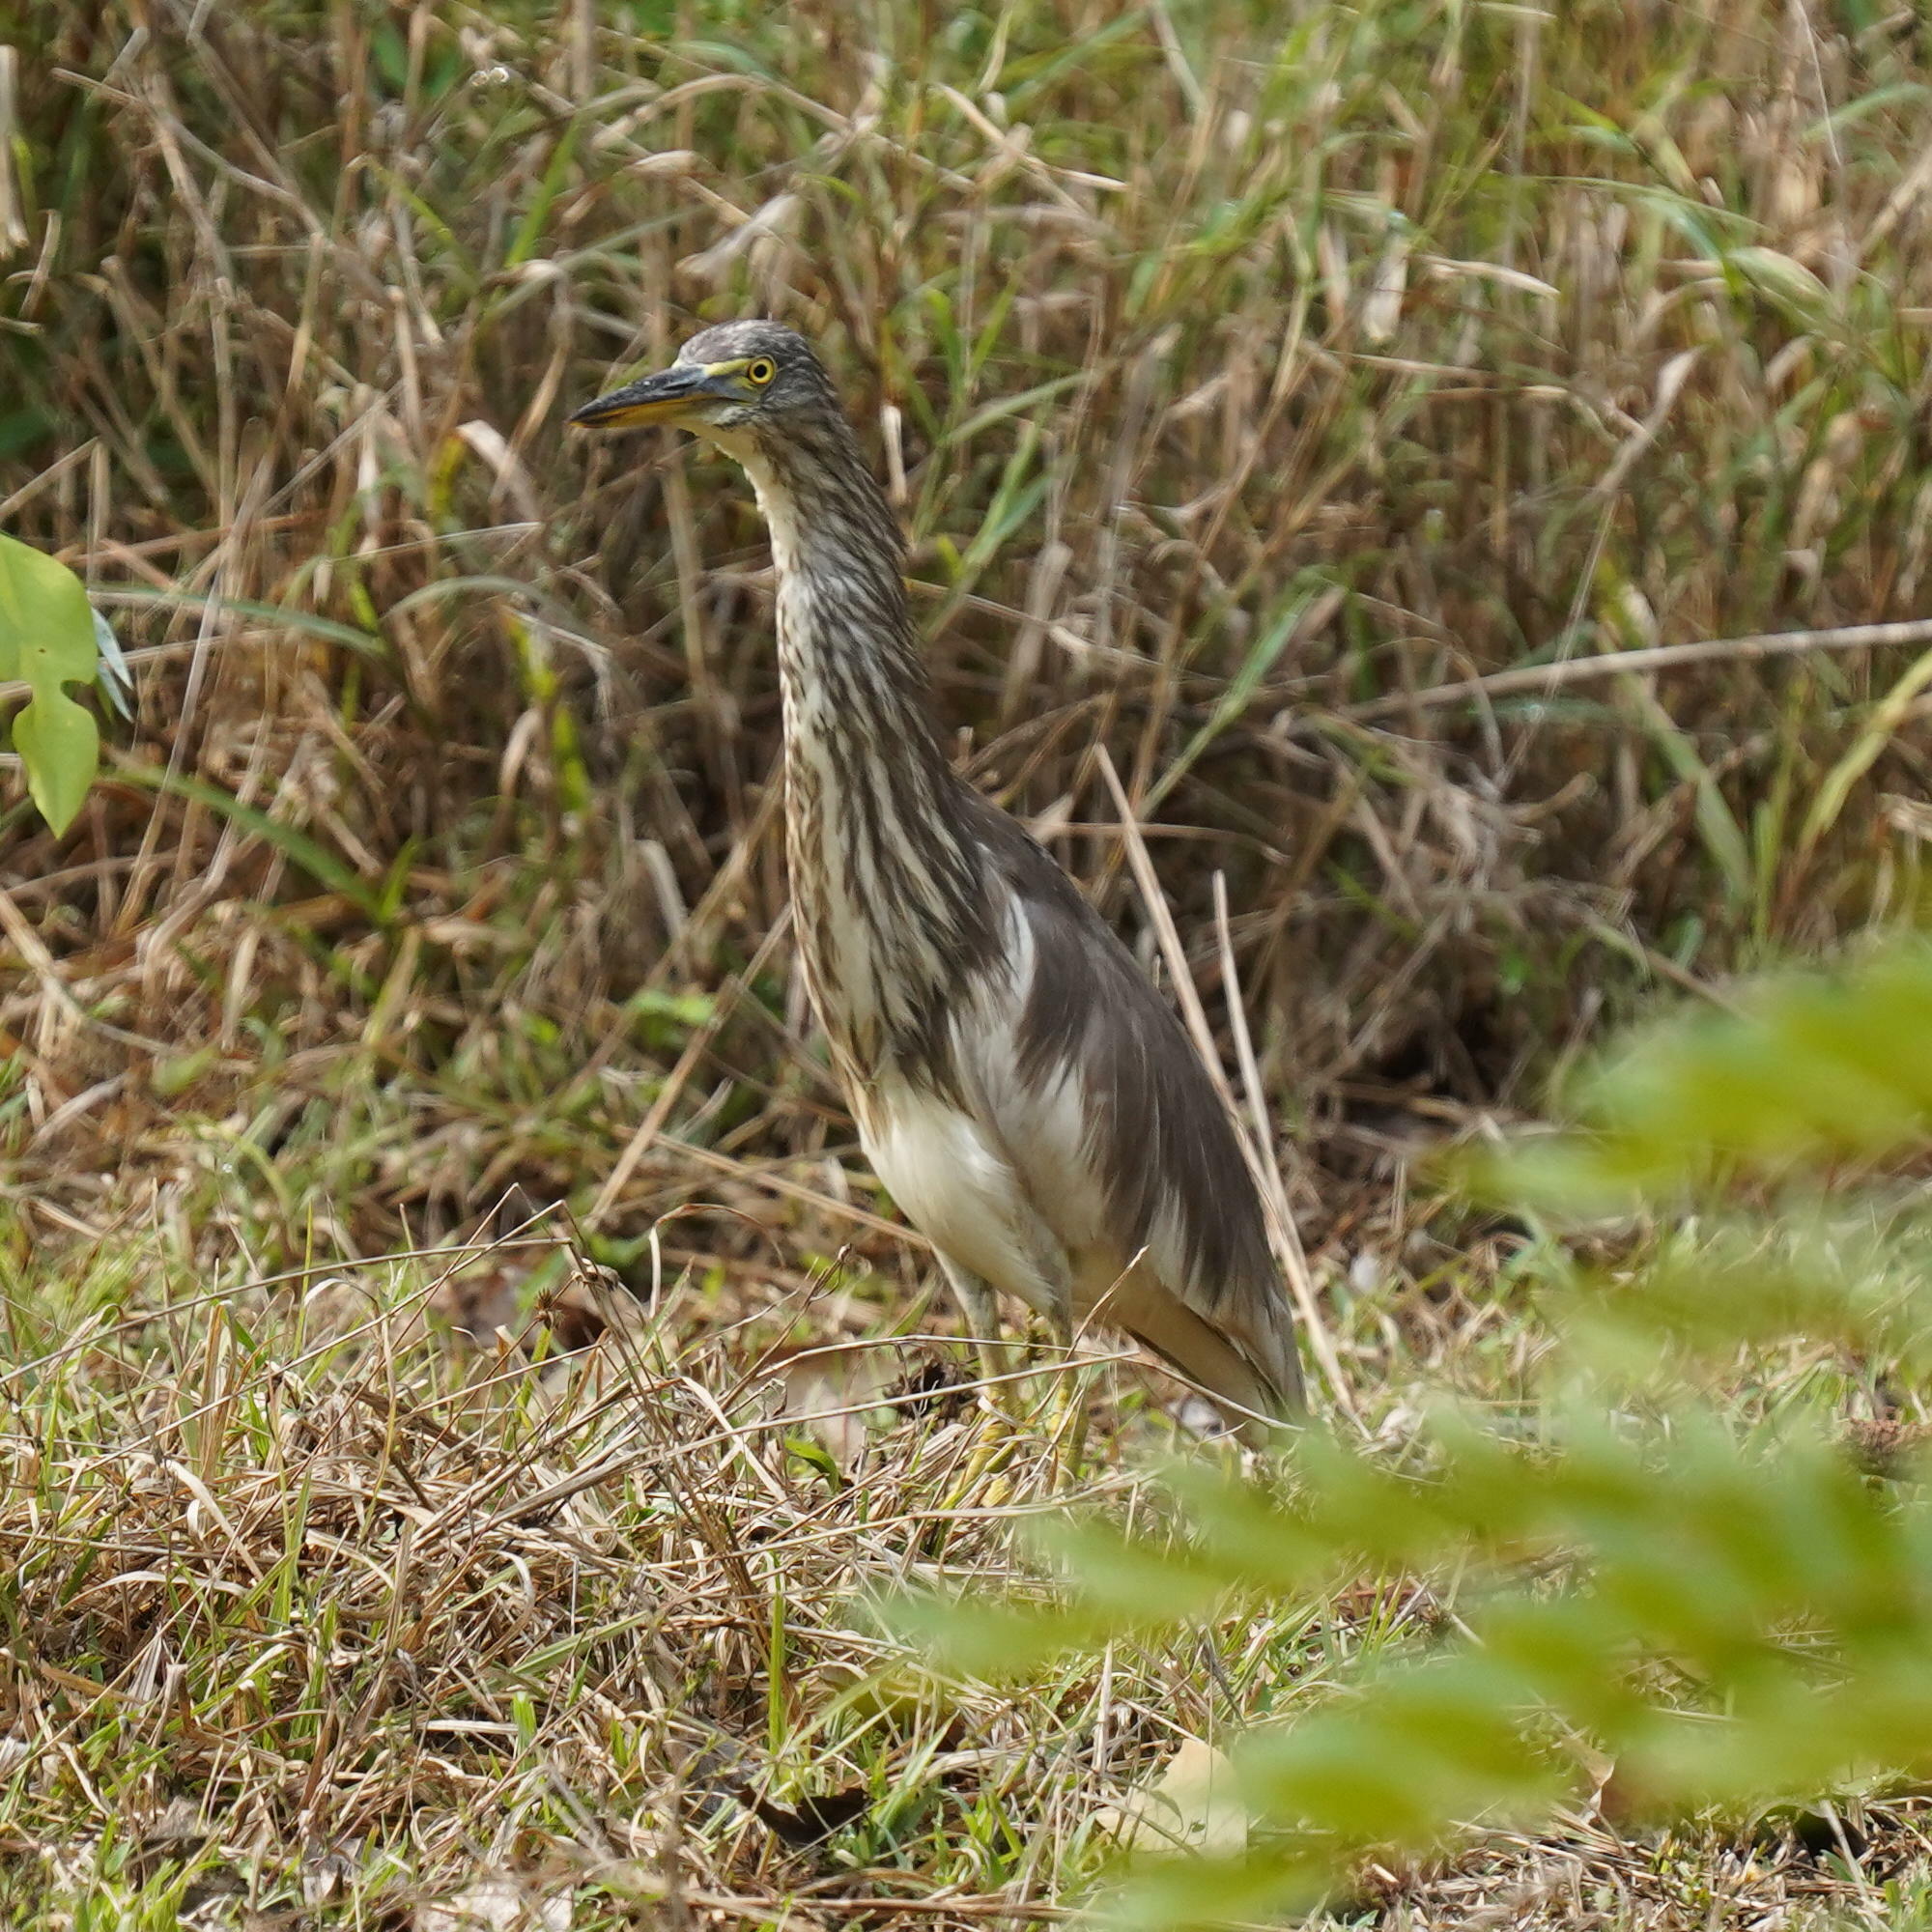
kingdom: Animalia
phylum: Chordata
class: Aves
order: Pelecaniformes
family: Ardeidae
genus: Ardeola
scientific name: Ardeola grayii
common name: Indian pond heron
